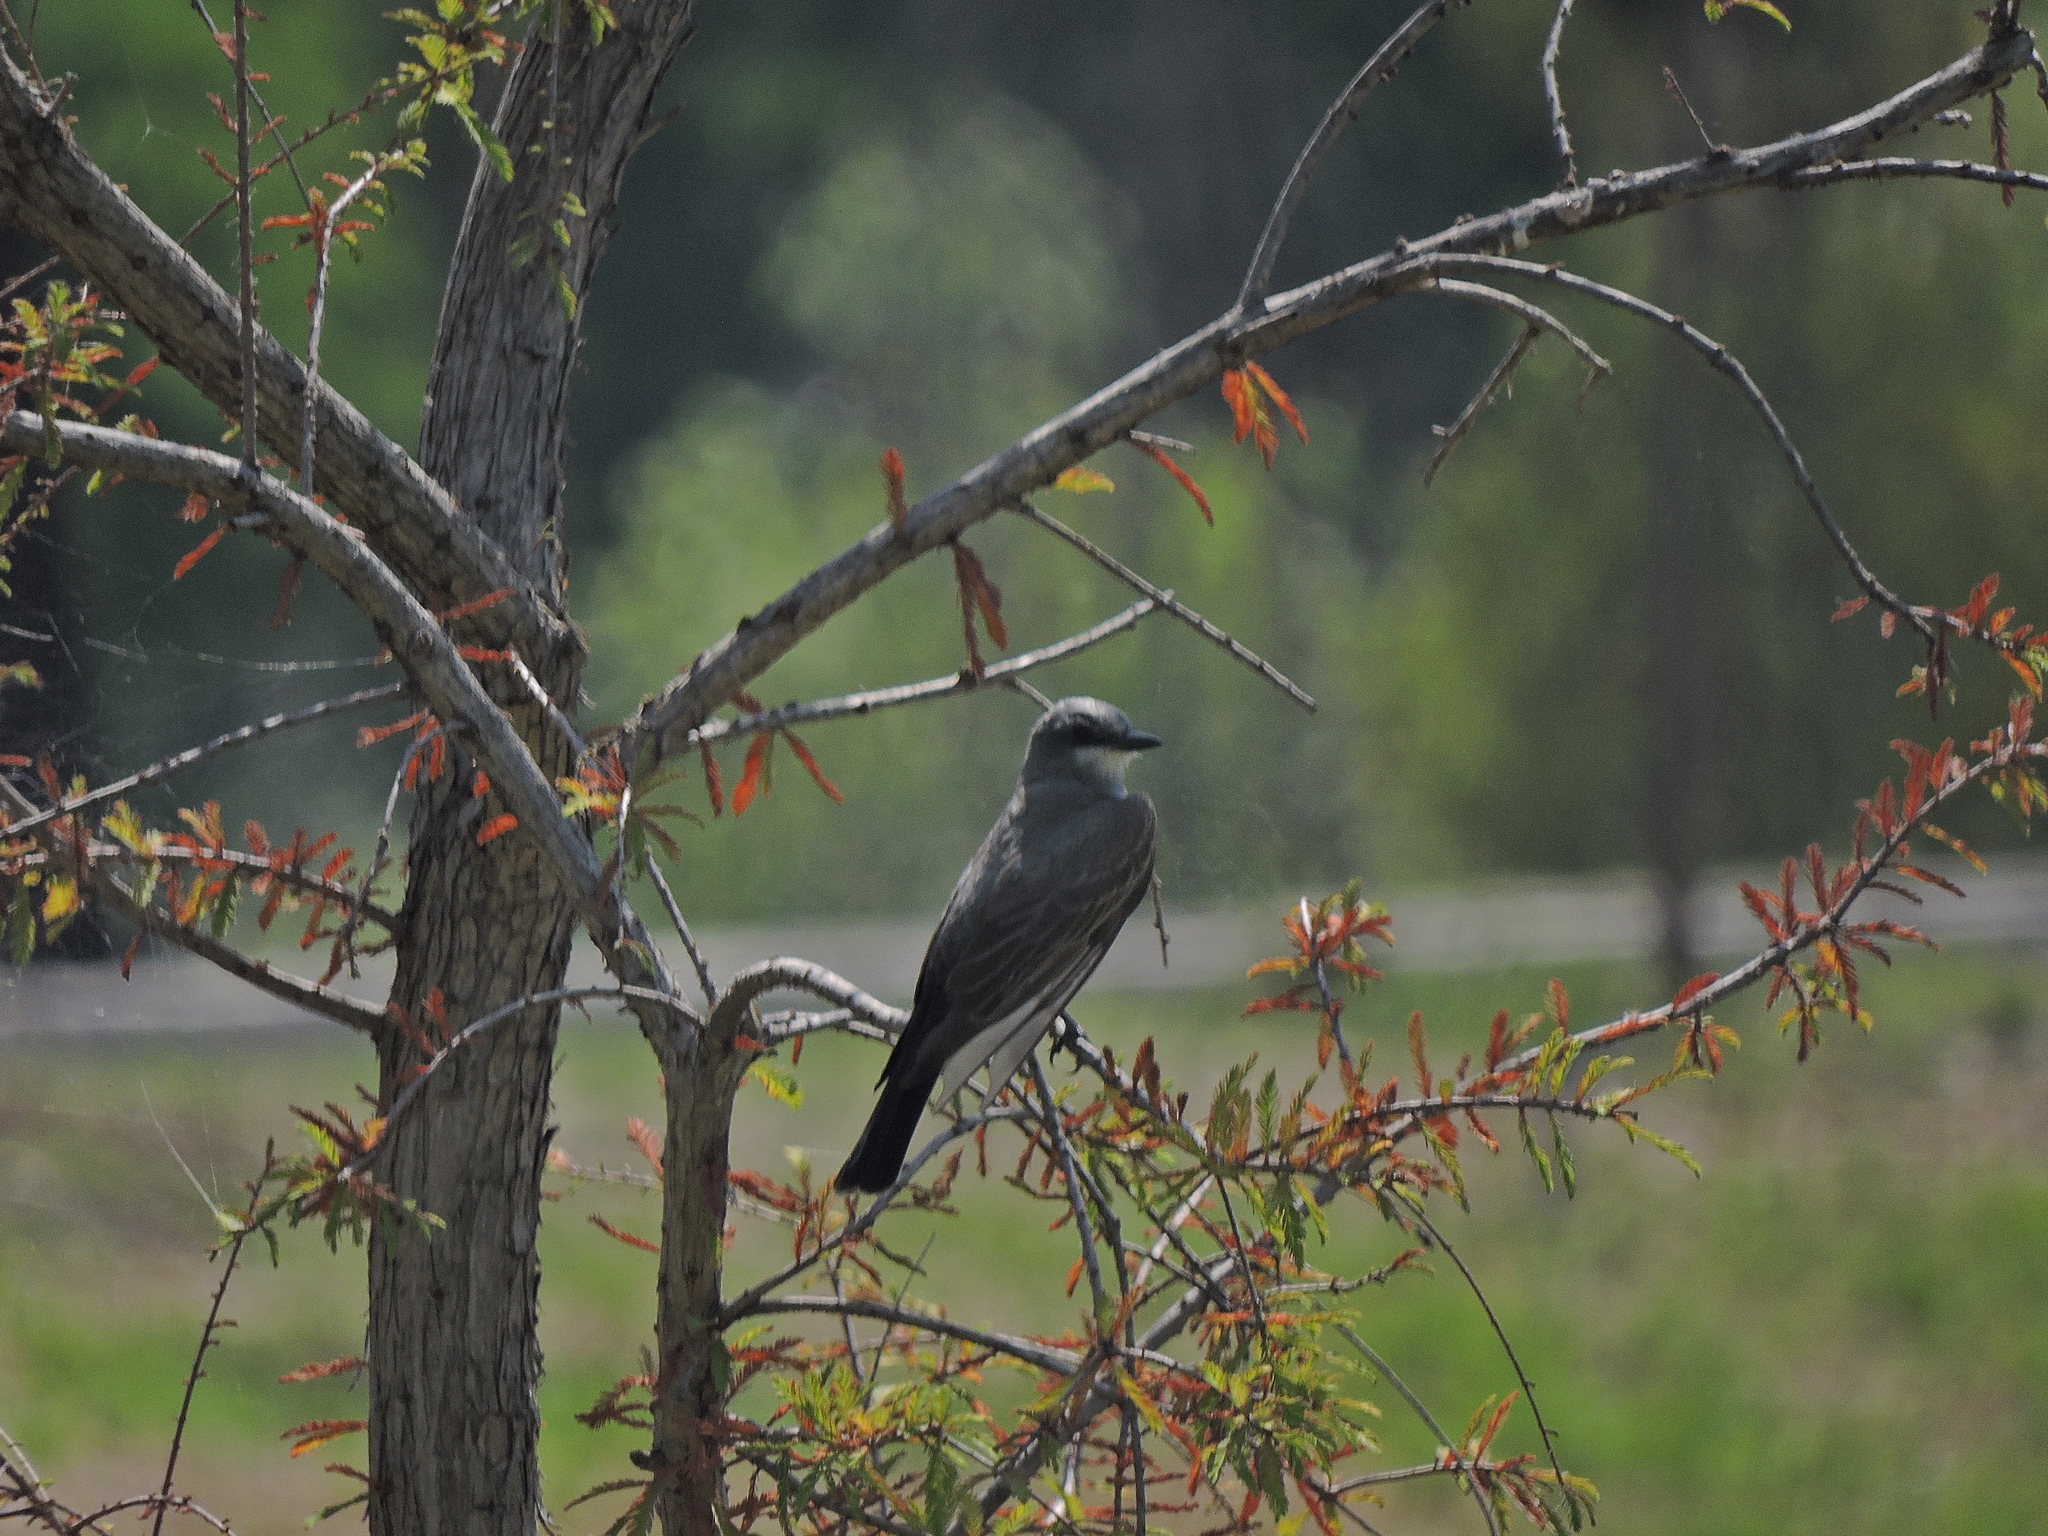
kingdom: Animalia
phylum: Chordata
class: Aves
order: Passeriformes
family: Tyrannidae
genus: Tyrannus
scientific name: Tyrannus vociferans
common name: Cassin's kingbird
